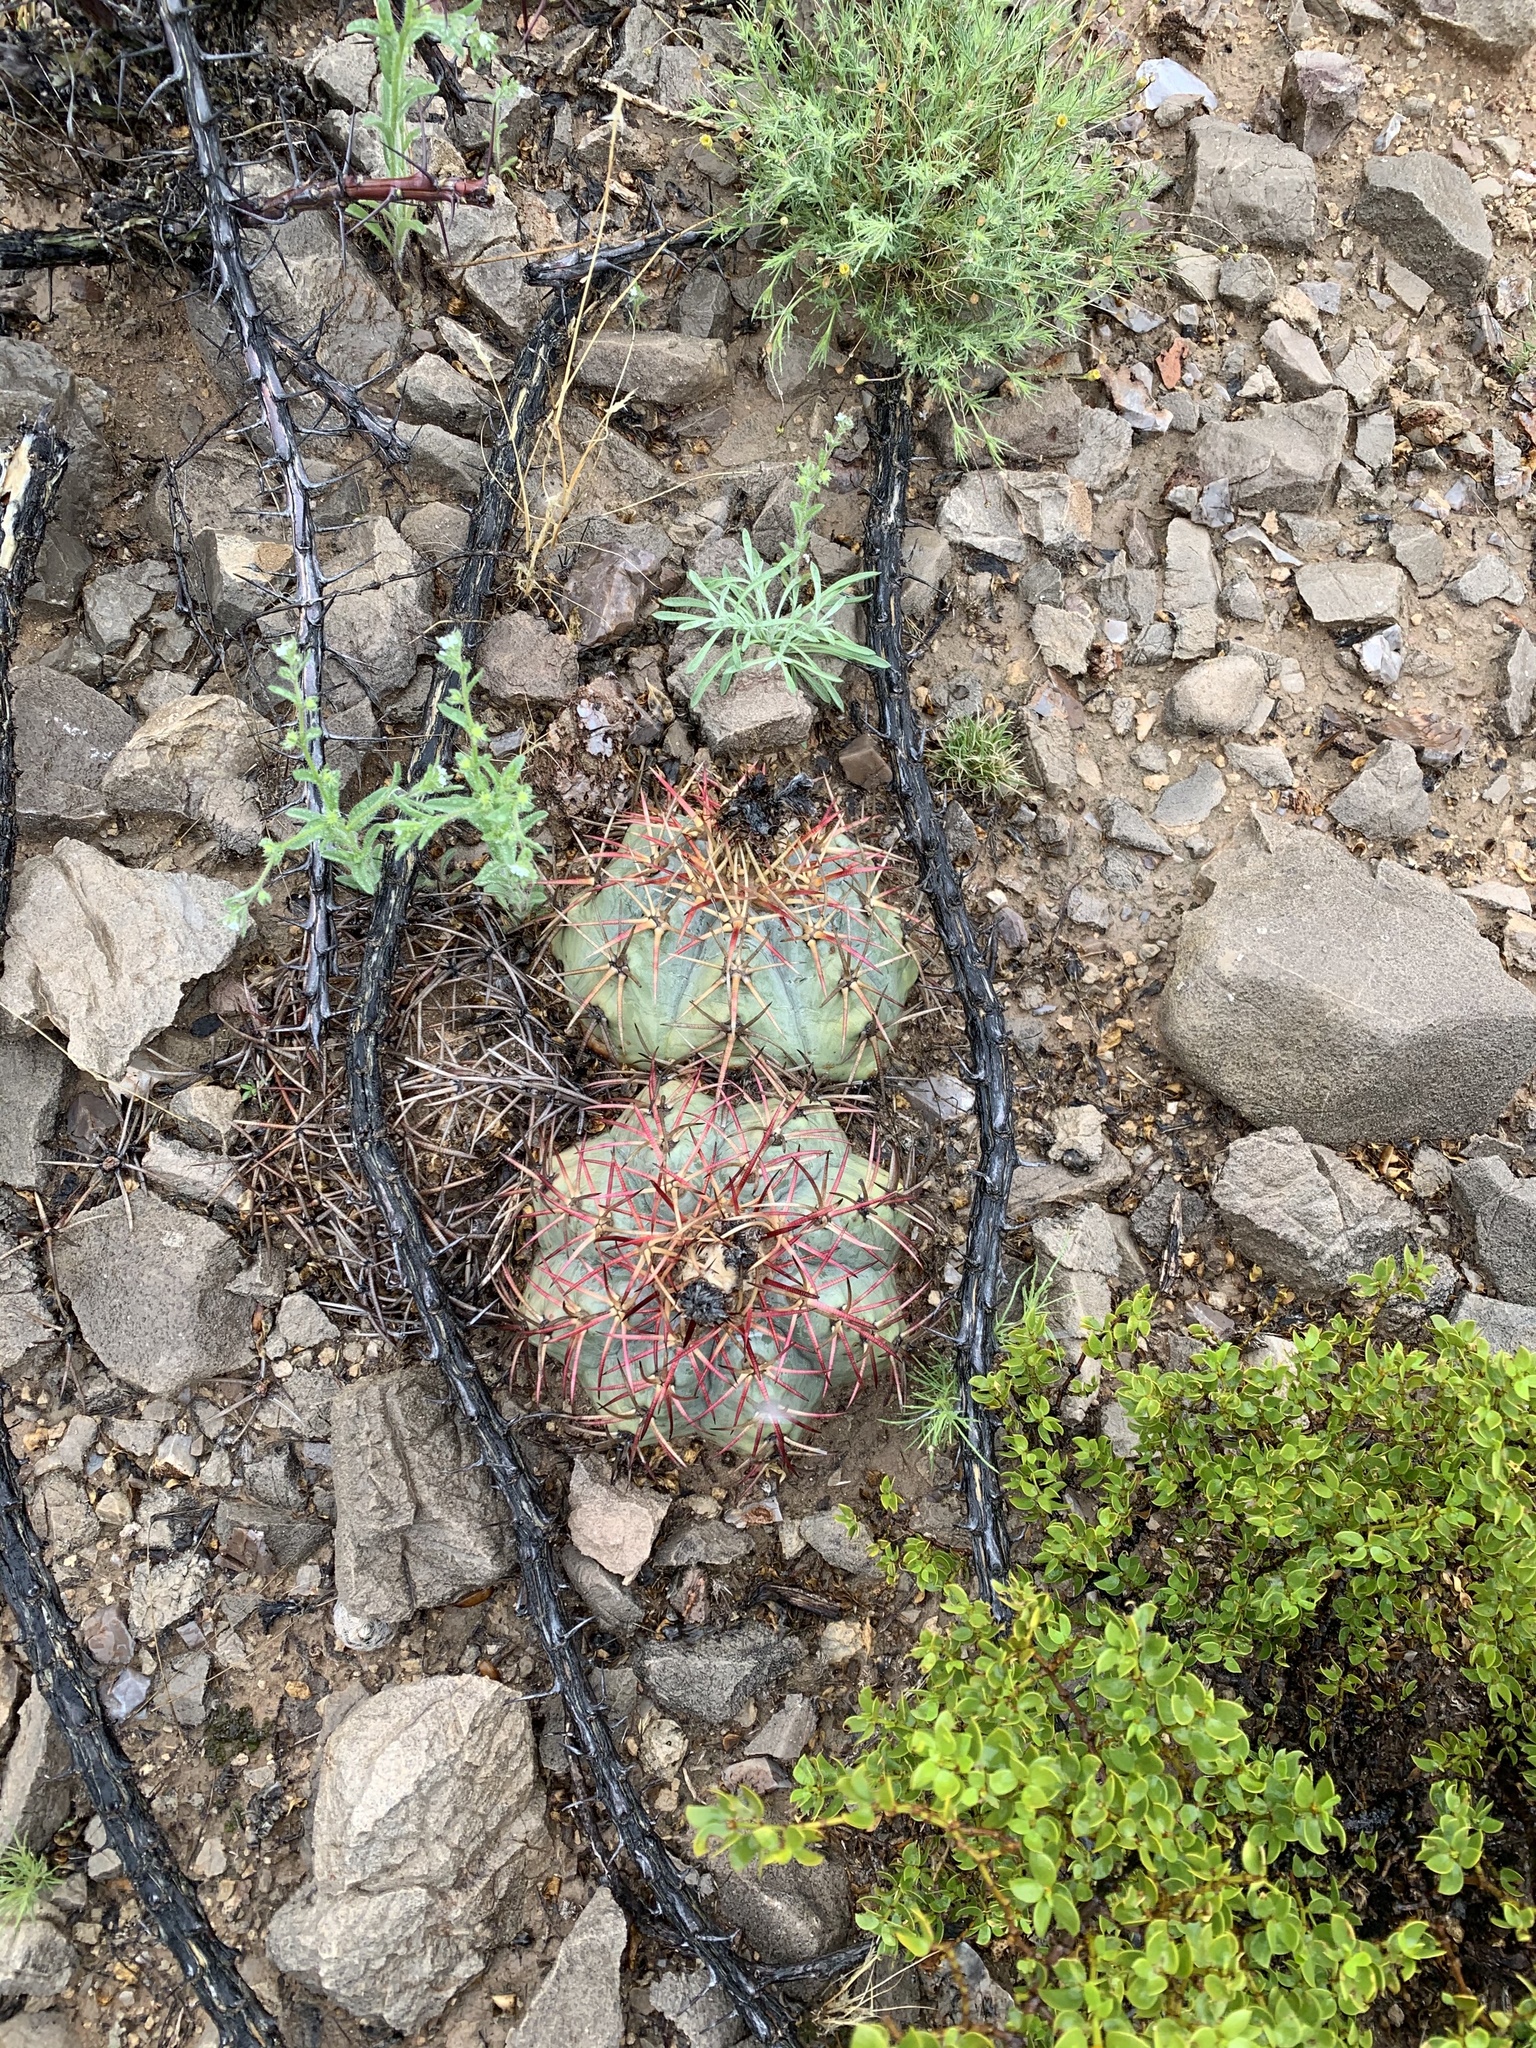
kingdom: Plantae
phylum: Tracheophyta
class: Magnoliopsida
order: Caryophyllales
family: Cactaceae
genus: Echinocactus
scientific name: Echinocactus horizonthalonius
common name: Devilshead
